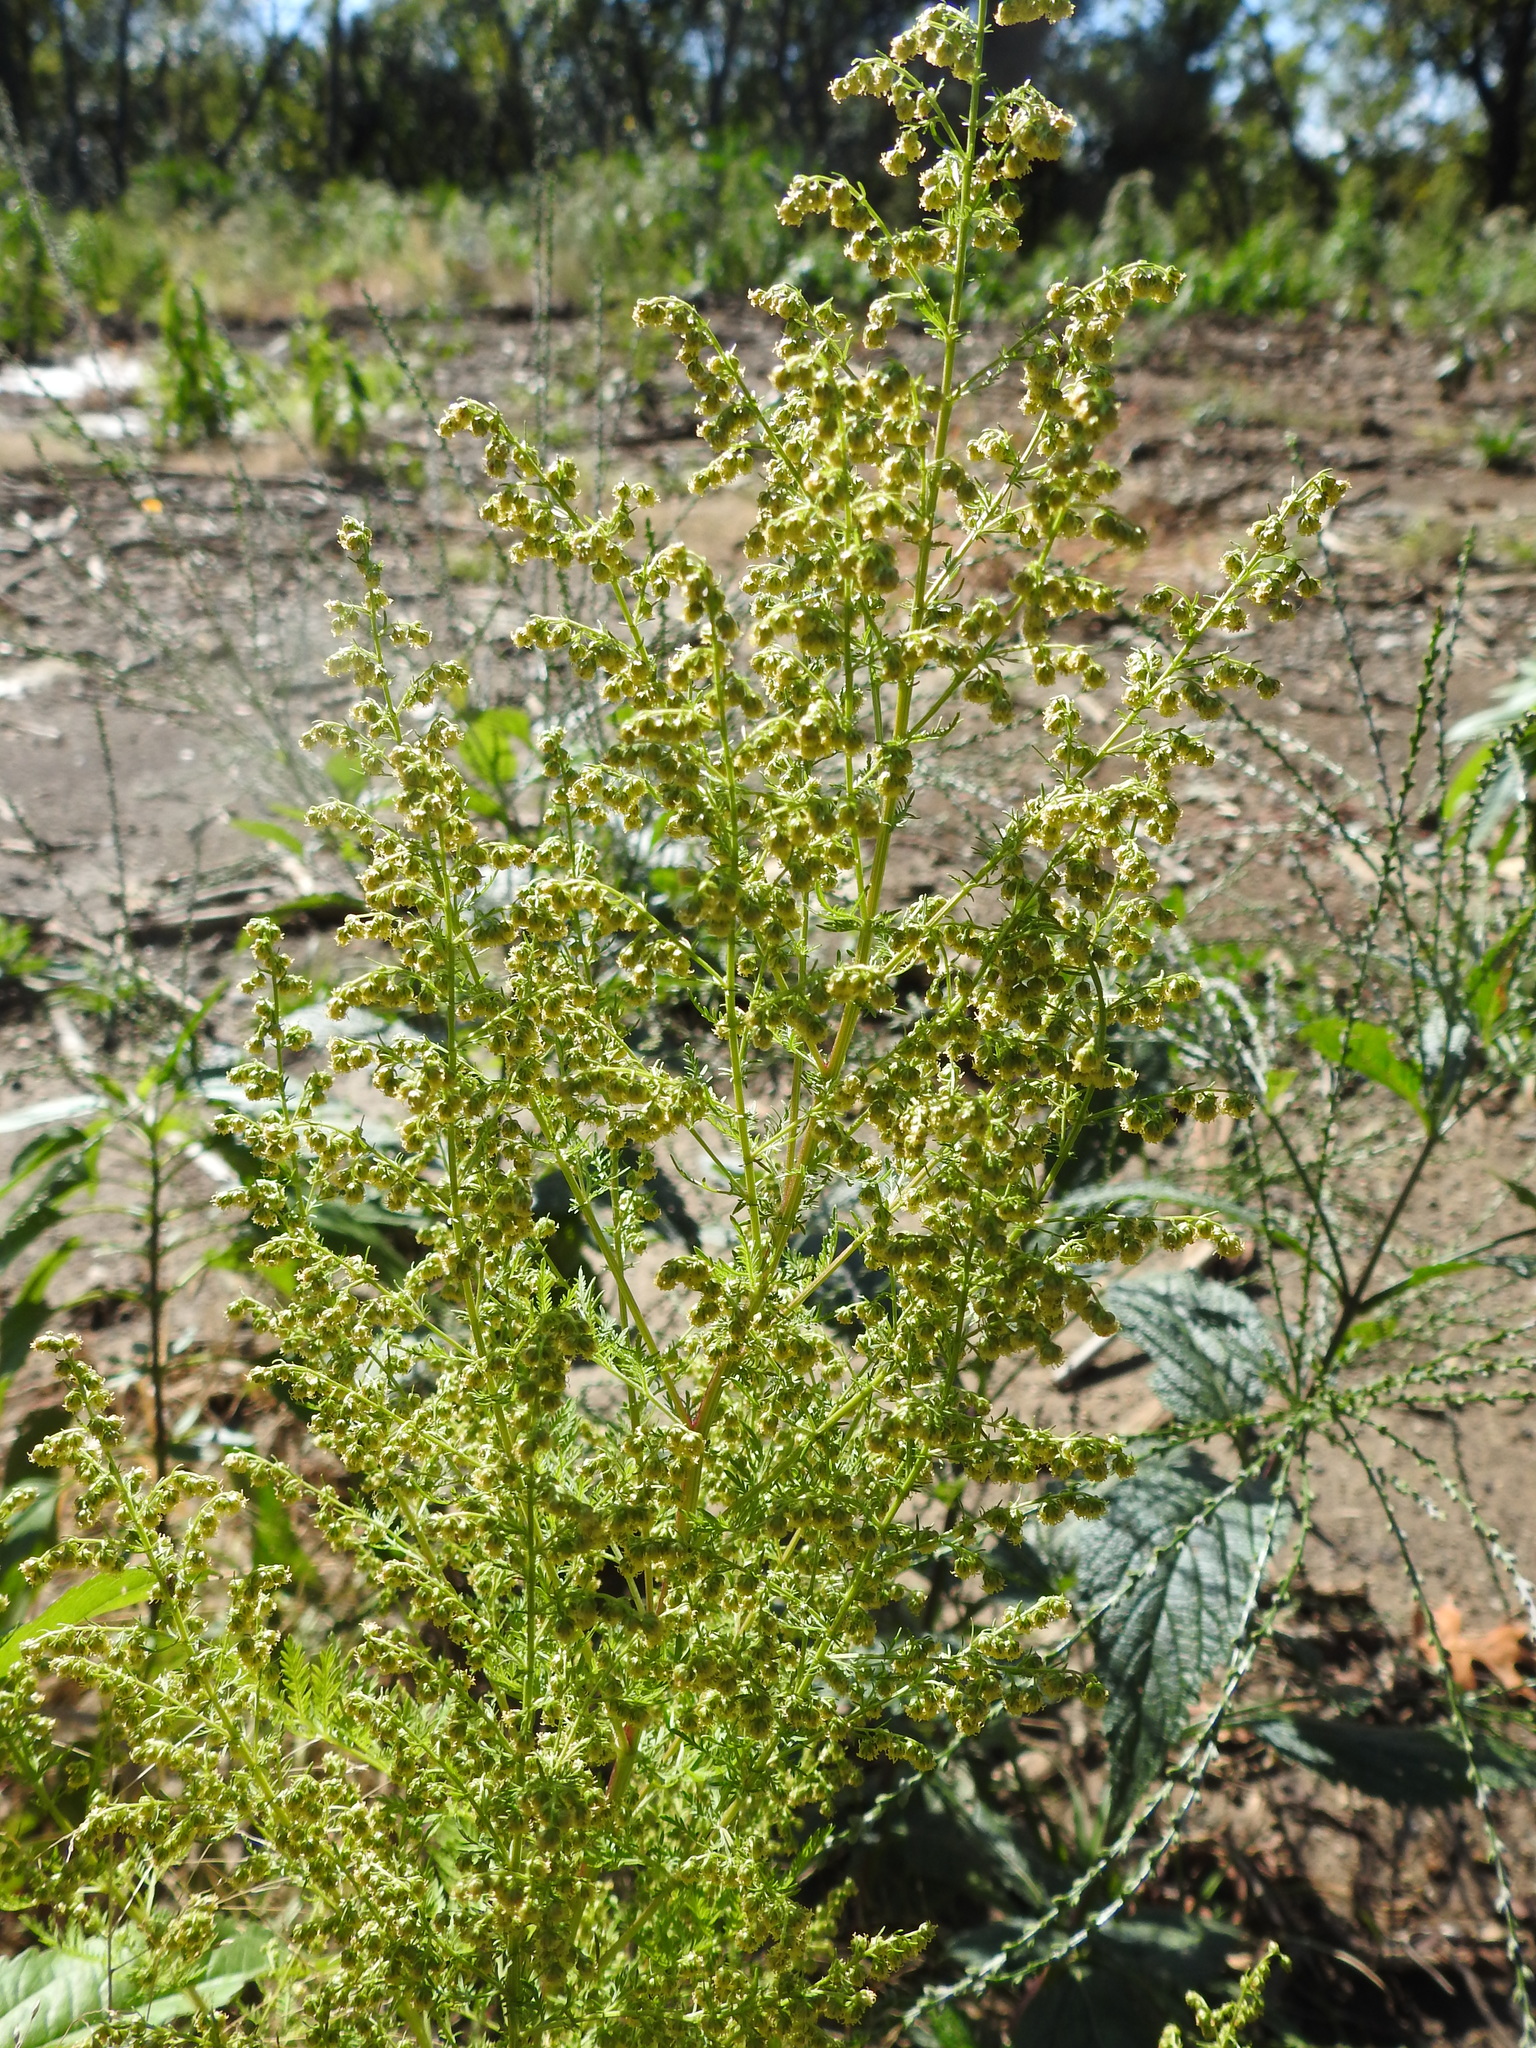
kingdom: Plantae
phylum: Tracheophyta
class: Magnoliopsida
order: Asterales
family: Asteraceae
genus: Artemisia
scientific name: Artemisia annua
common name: Sweet sagewort
